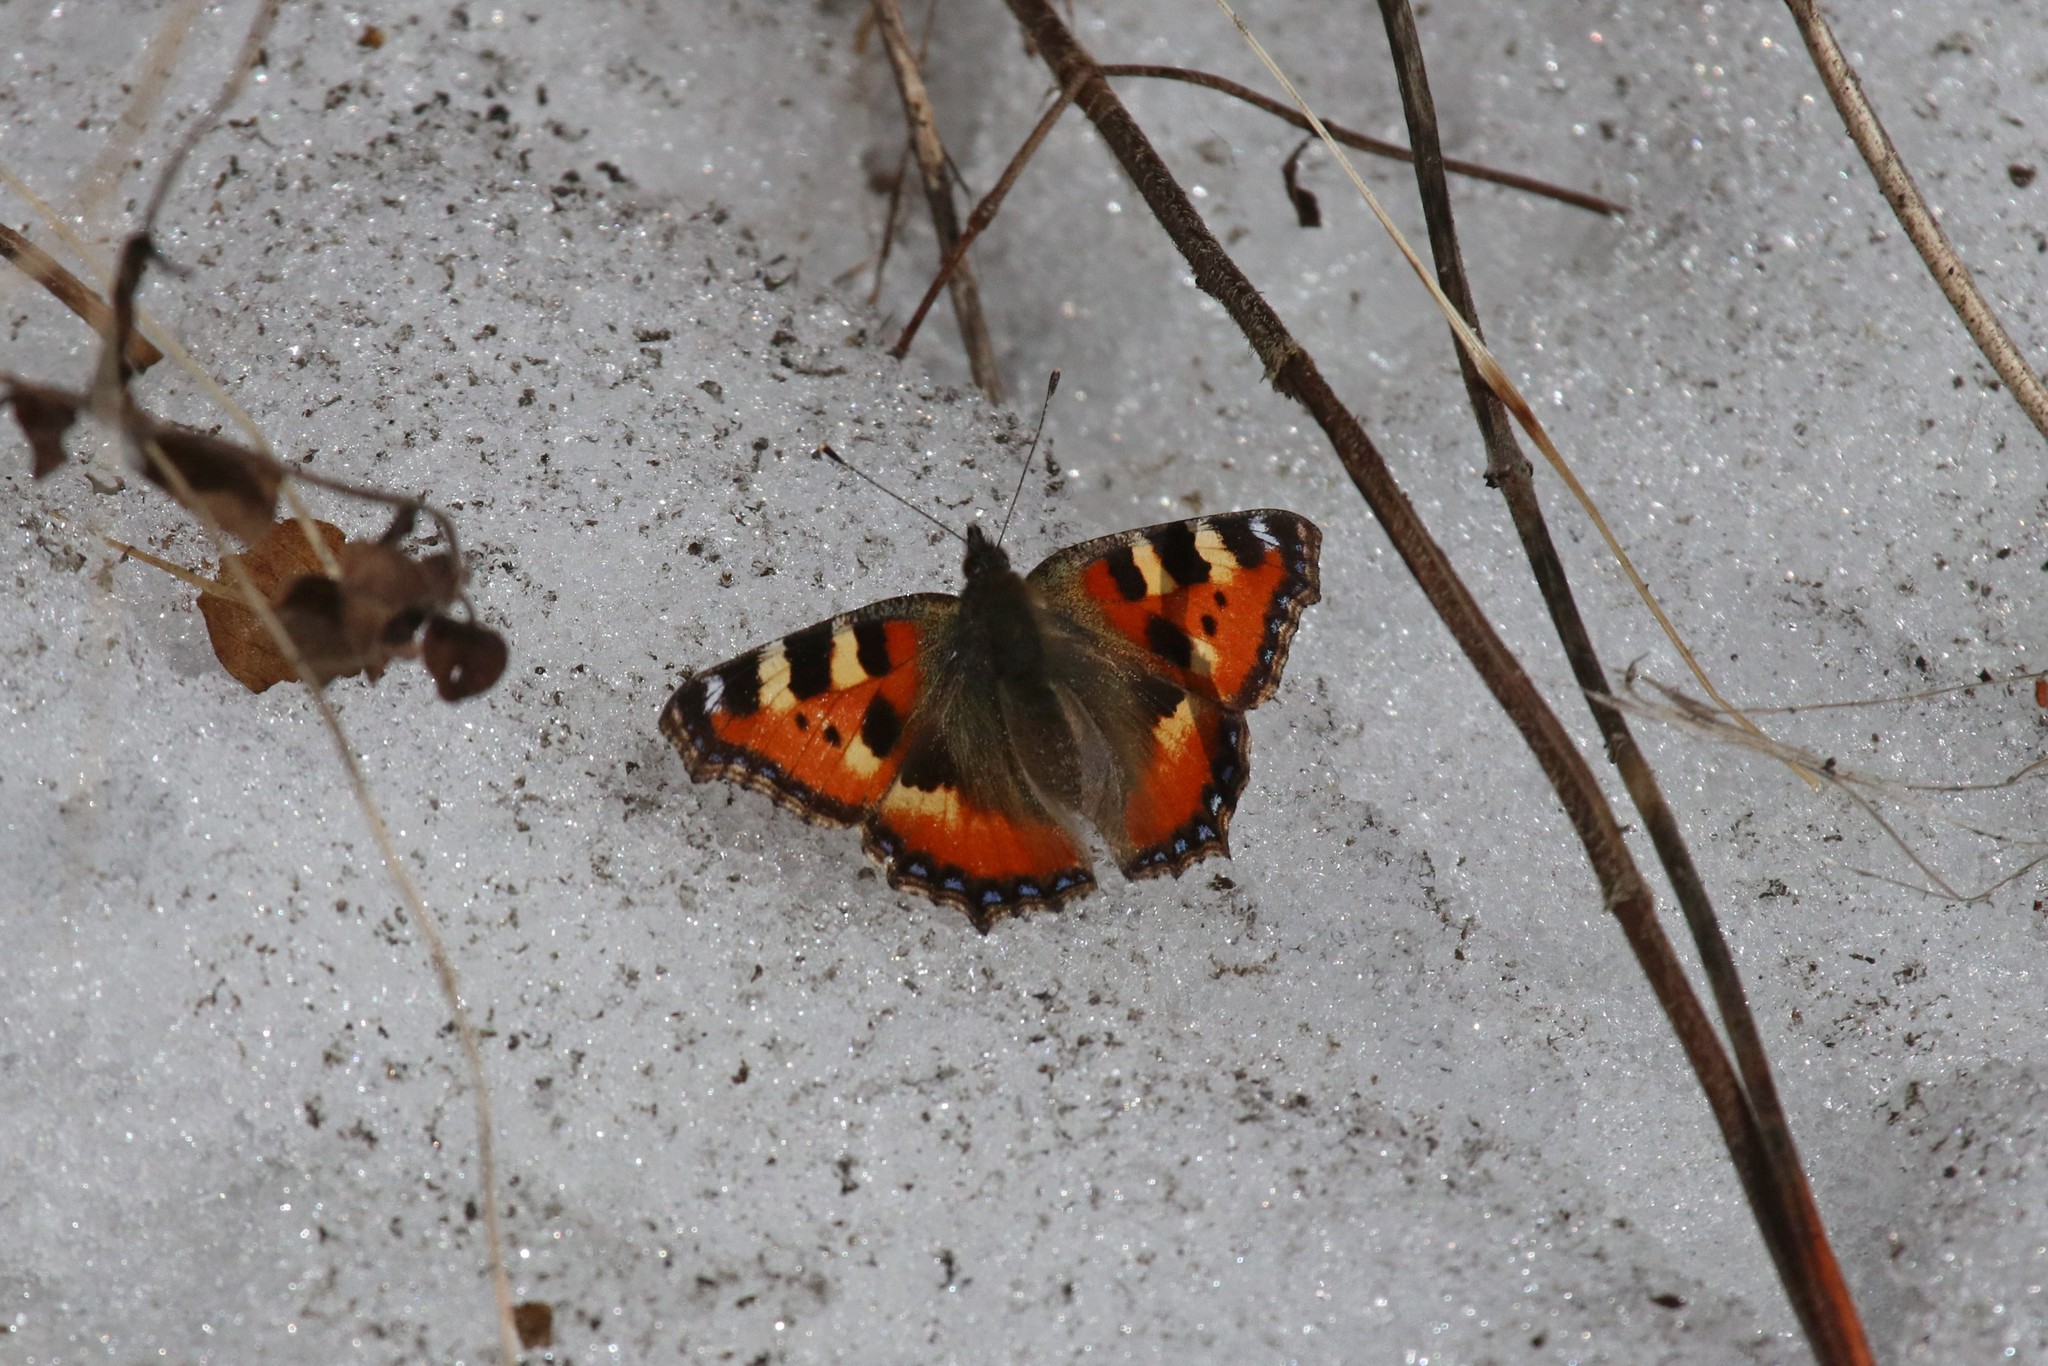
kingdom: Animalia
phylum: Arthropoda
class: Insecta
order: Lepidoptera
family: Nymphalidae
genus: Aglais
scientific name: Aglais urticae
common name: Small tortoiseshell
